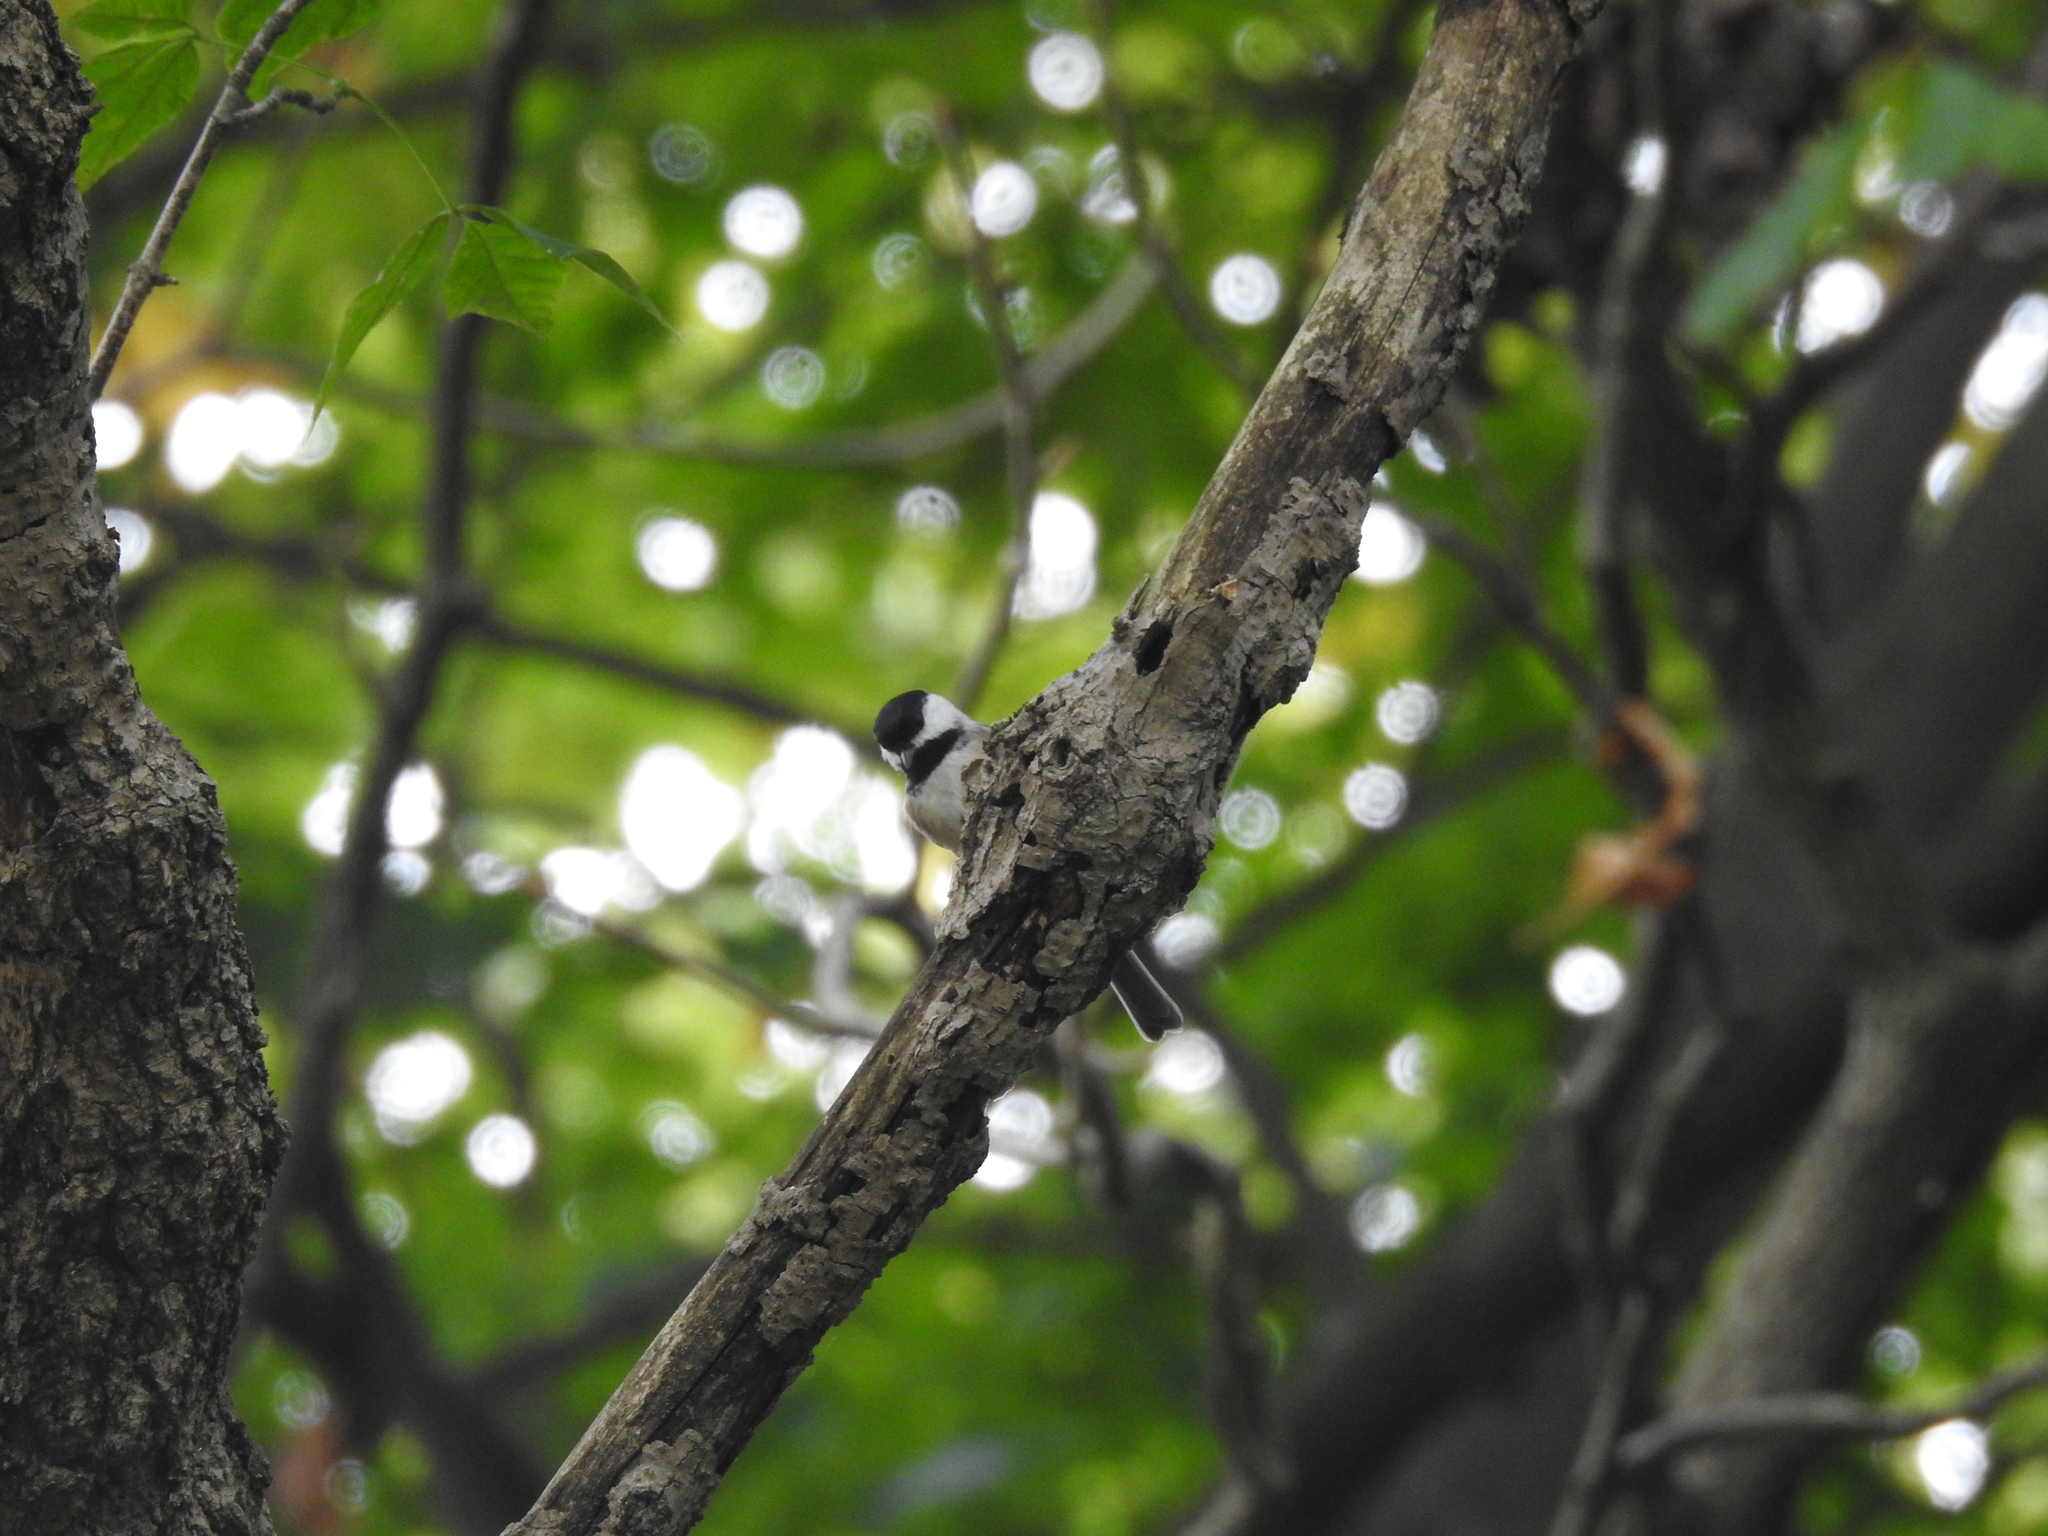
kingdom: Animalia
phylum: Chordata
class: Aves
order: Passeriformes
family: Paridae
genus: Poecile
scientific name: Poecile carolinensis
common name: Carolina chickadee
